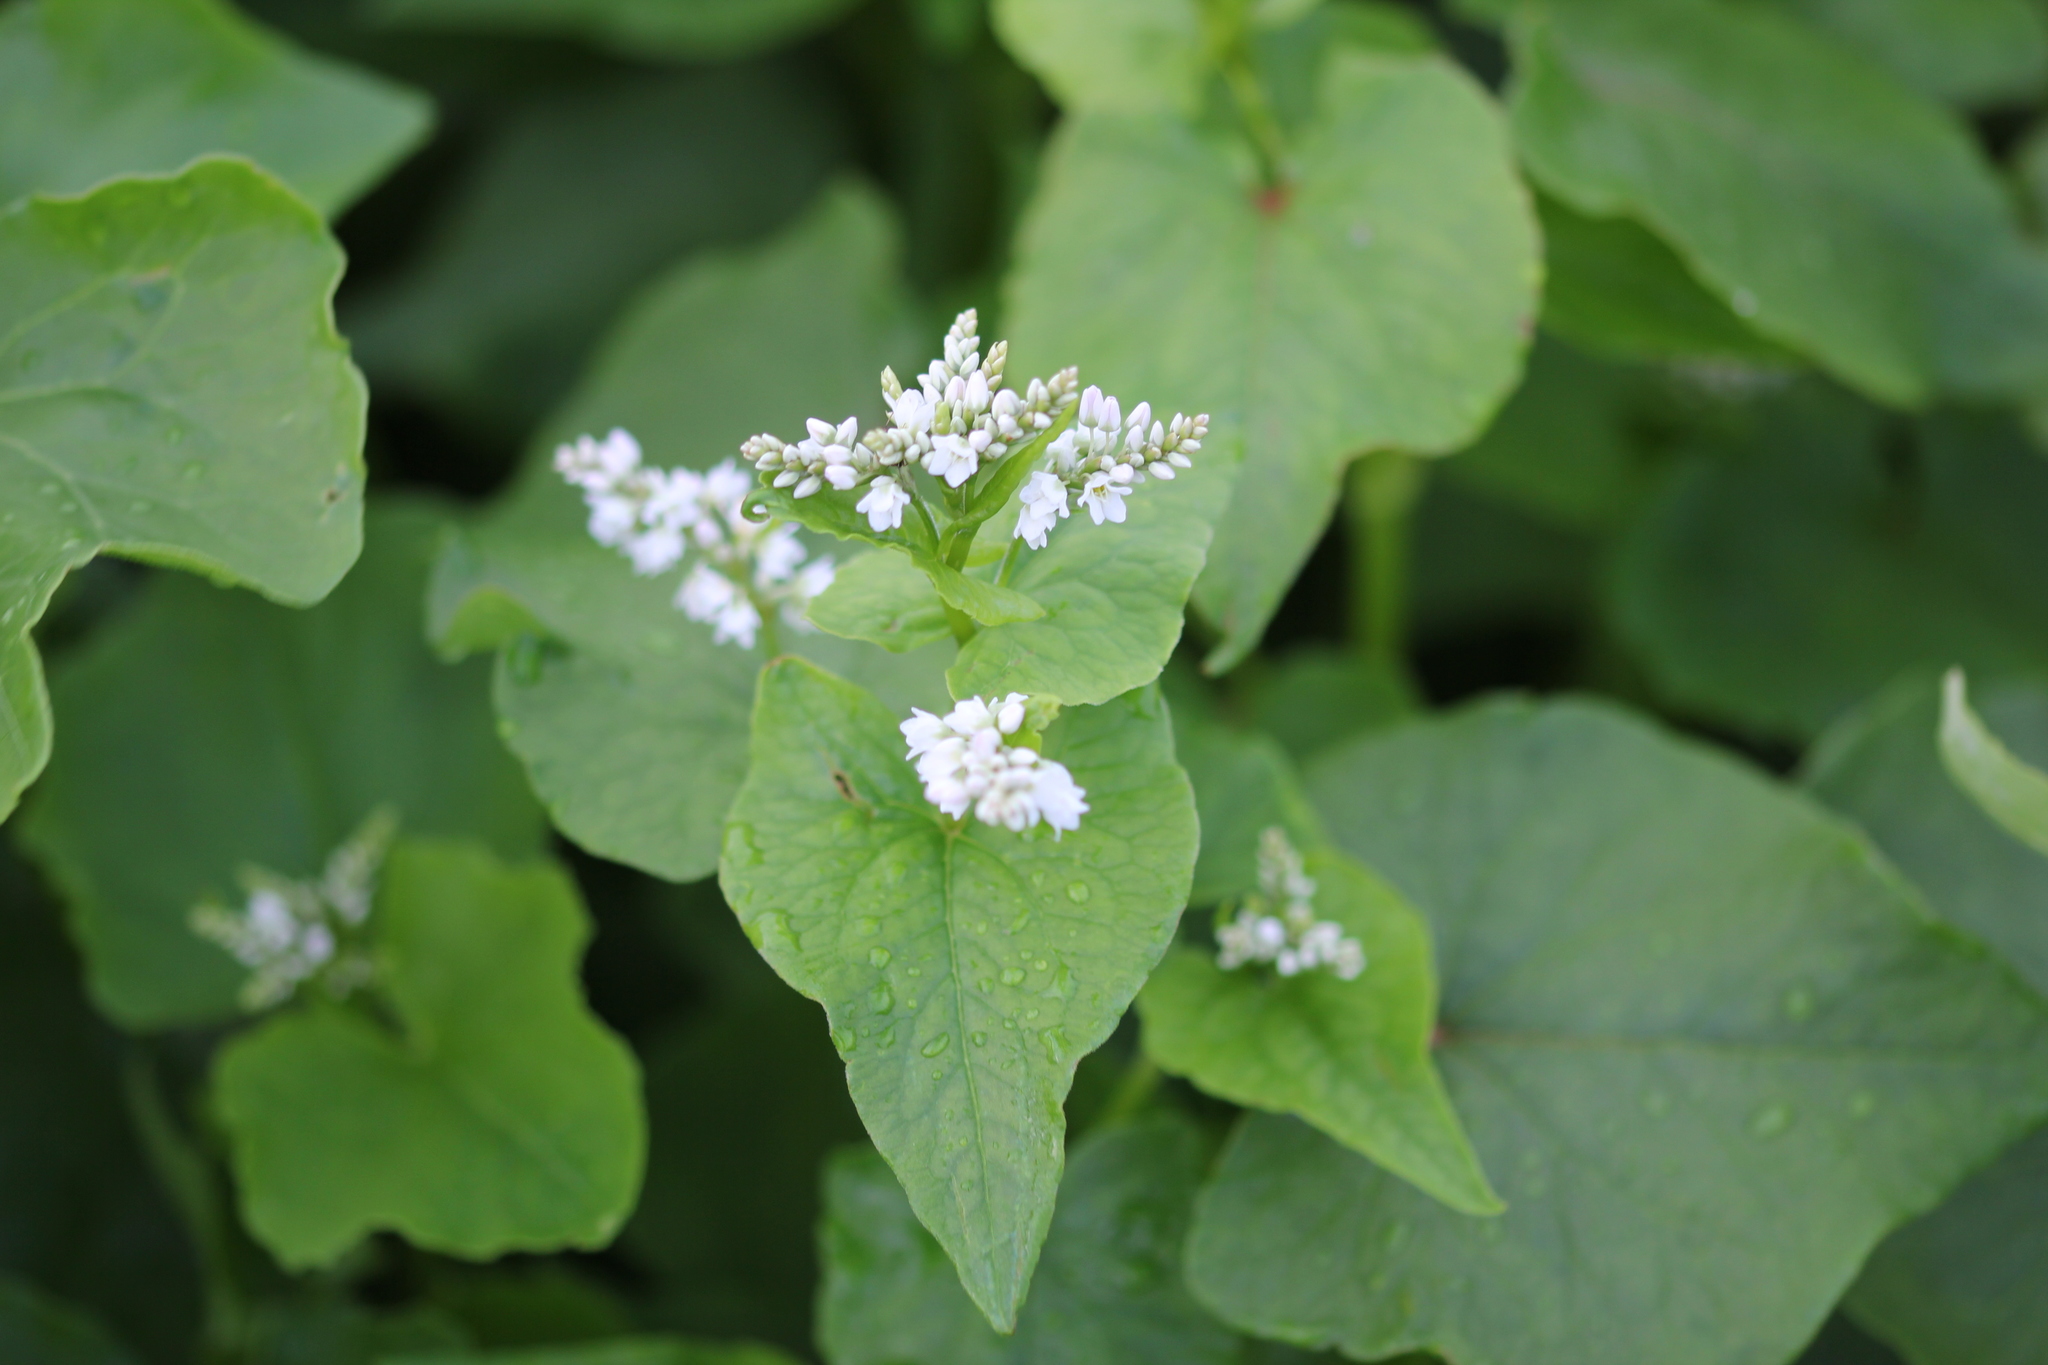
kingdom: Plantae
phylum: Tracheophyta
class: Magnoliopsida
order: Caryophyllales
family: Polygonaceae
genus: Fagopyrum
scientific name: Fagopyrum esculentum
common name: Buckwheat
